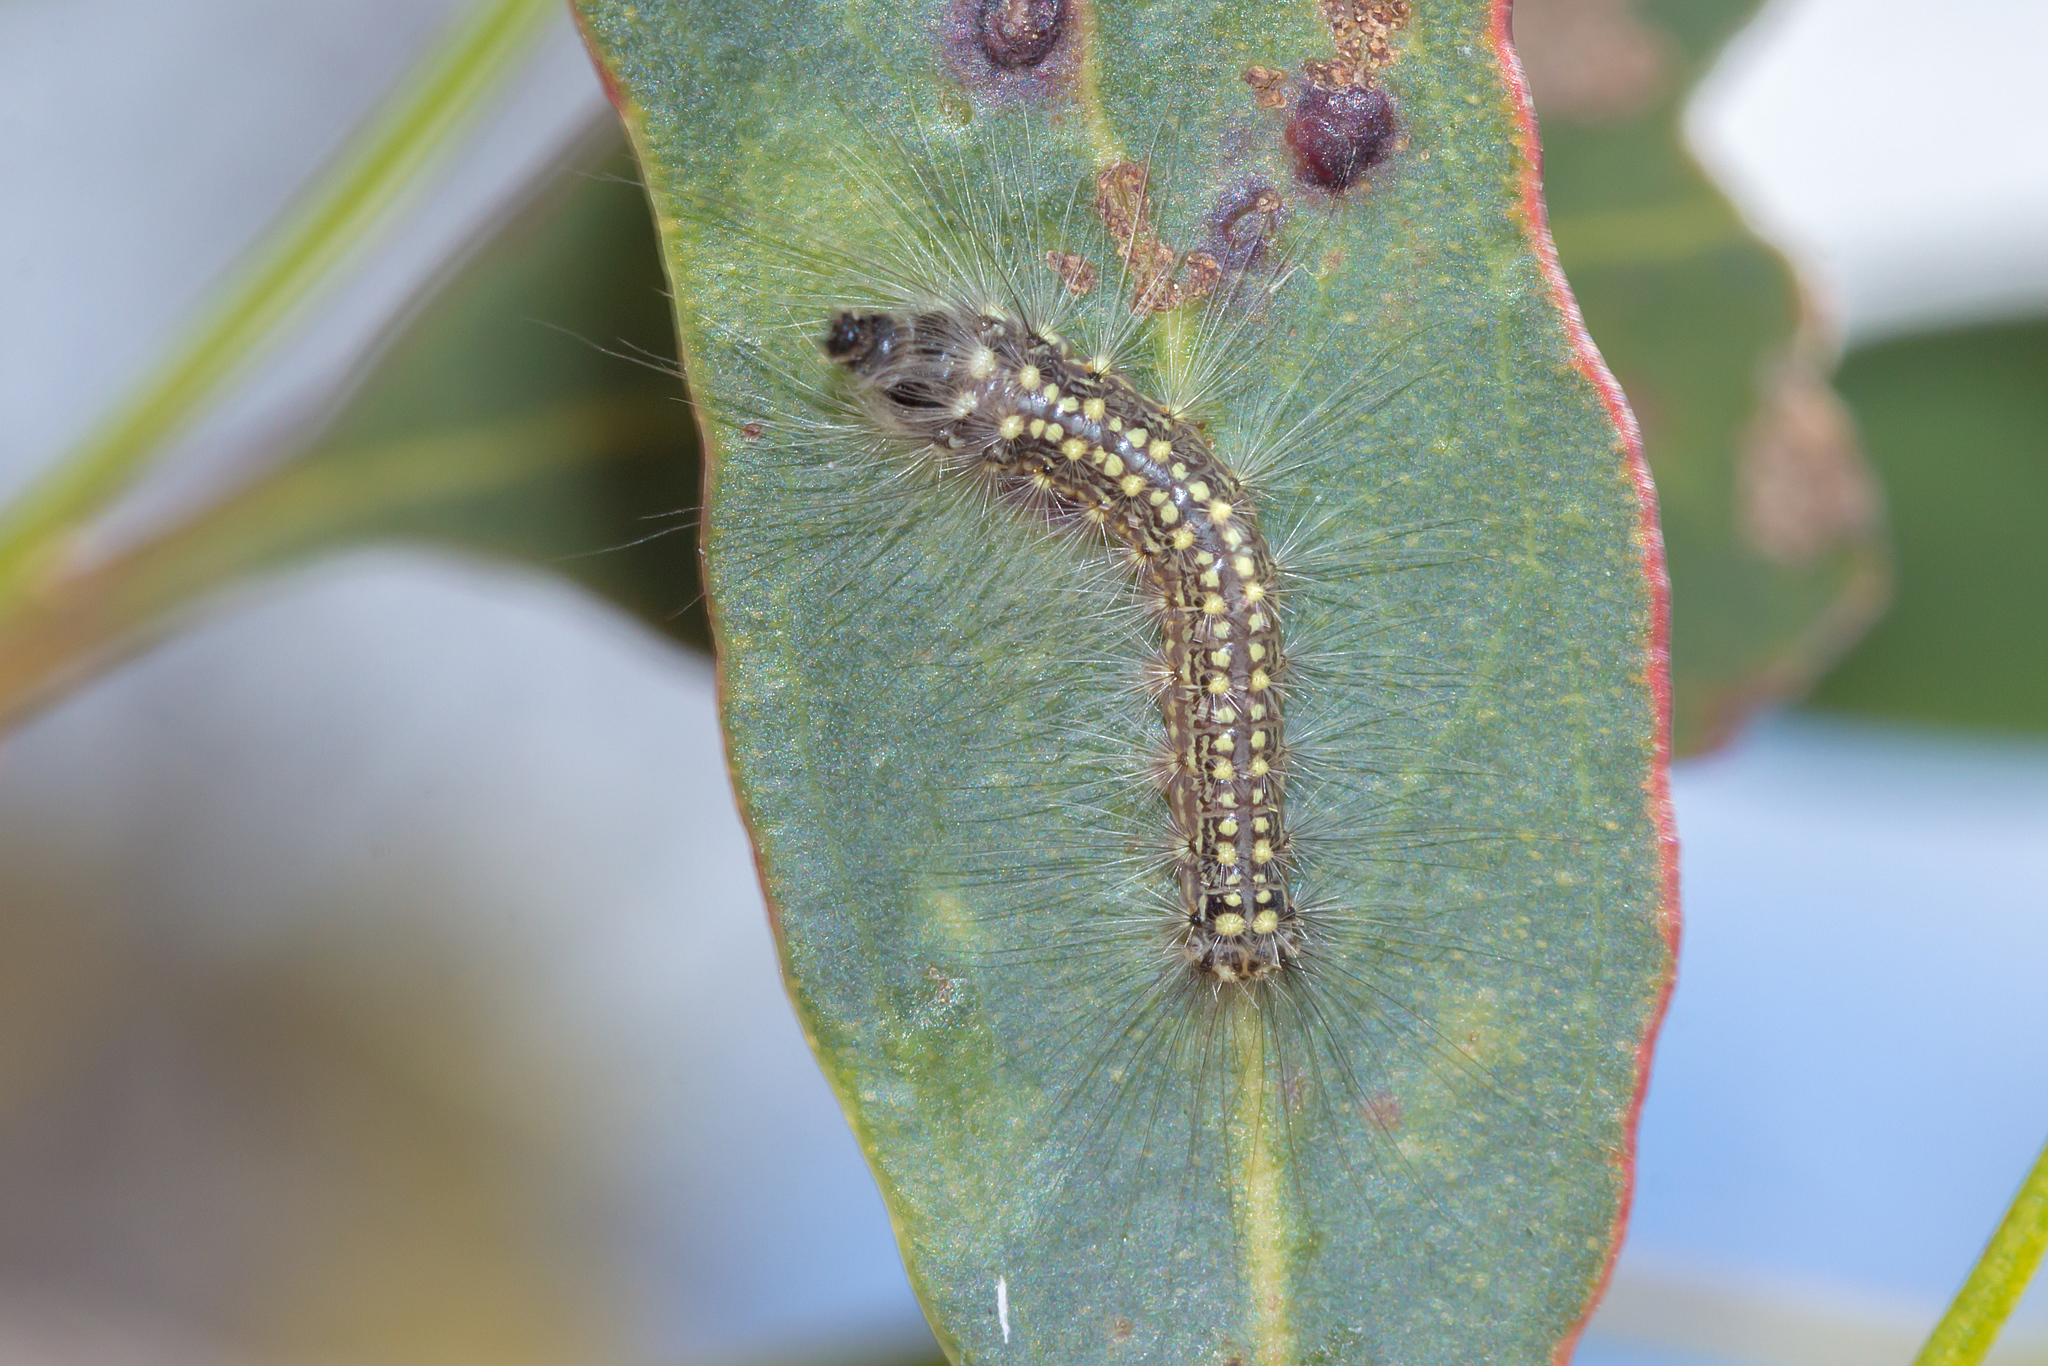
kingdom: Animalia
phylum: Arthropoda
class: Insecta
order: Lepidoptera
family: Nolidae
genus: Uraba
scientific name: Uraba lugens
